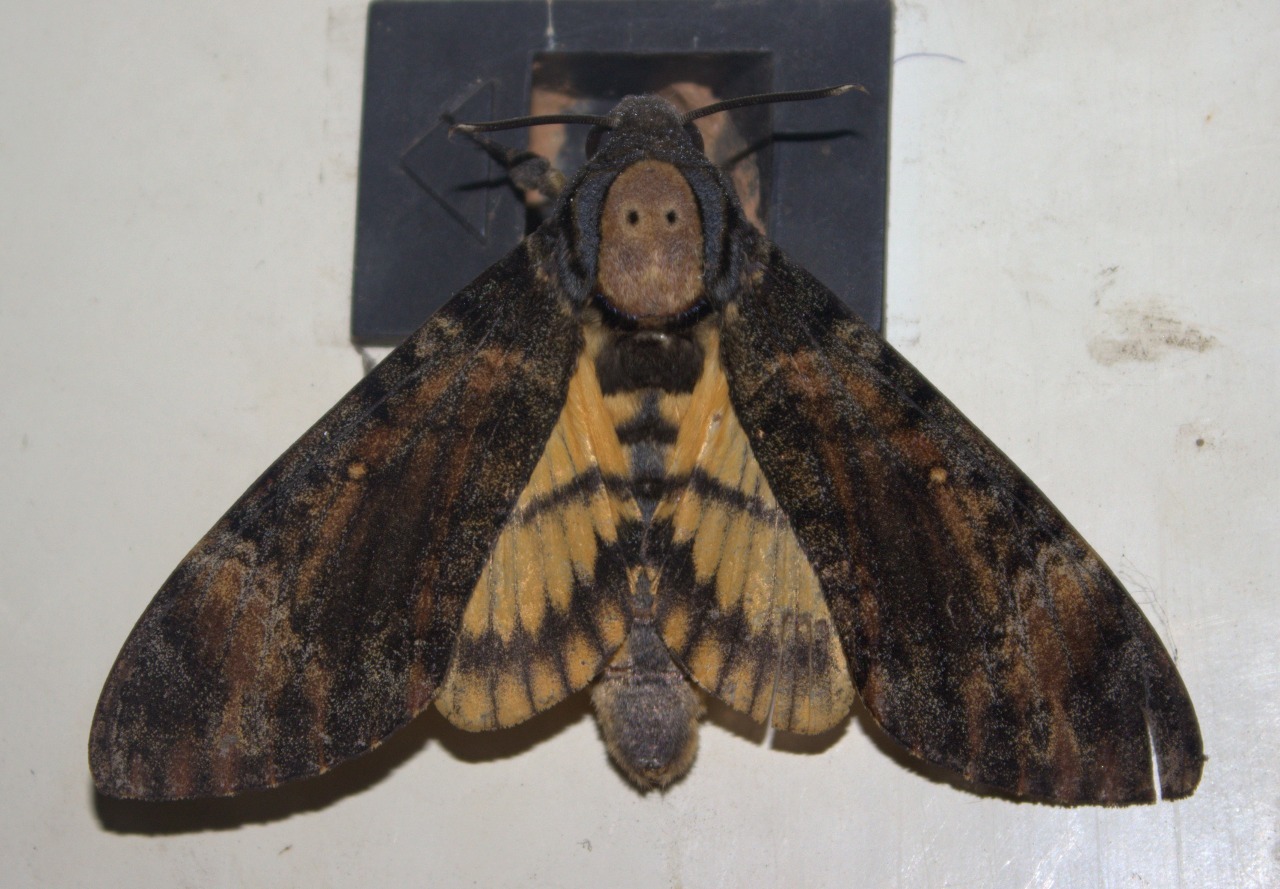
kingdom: Animalia
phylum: Arthropoda
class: Insecta
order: Lepidoptera
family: Sphingidae
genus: Acherontia
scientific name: Acherontia styx
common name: Death's-head hawk moth
